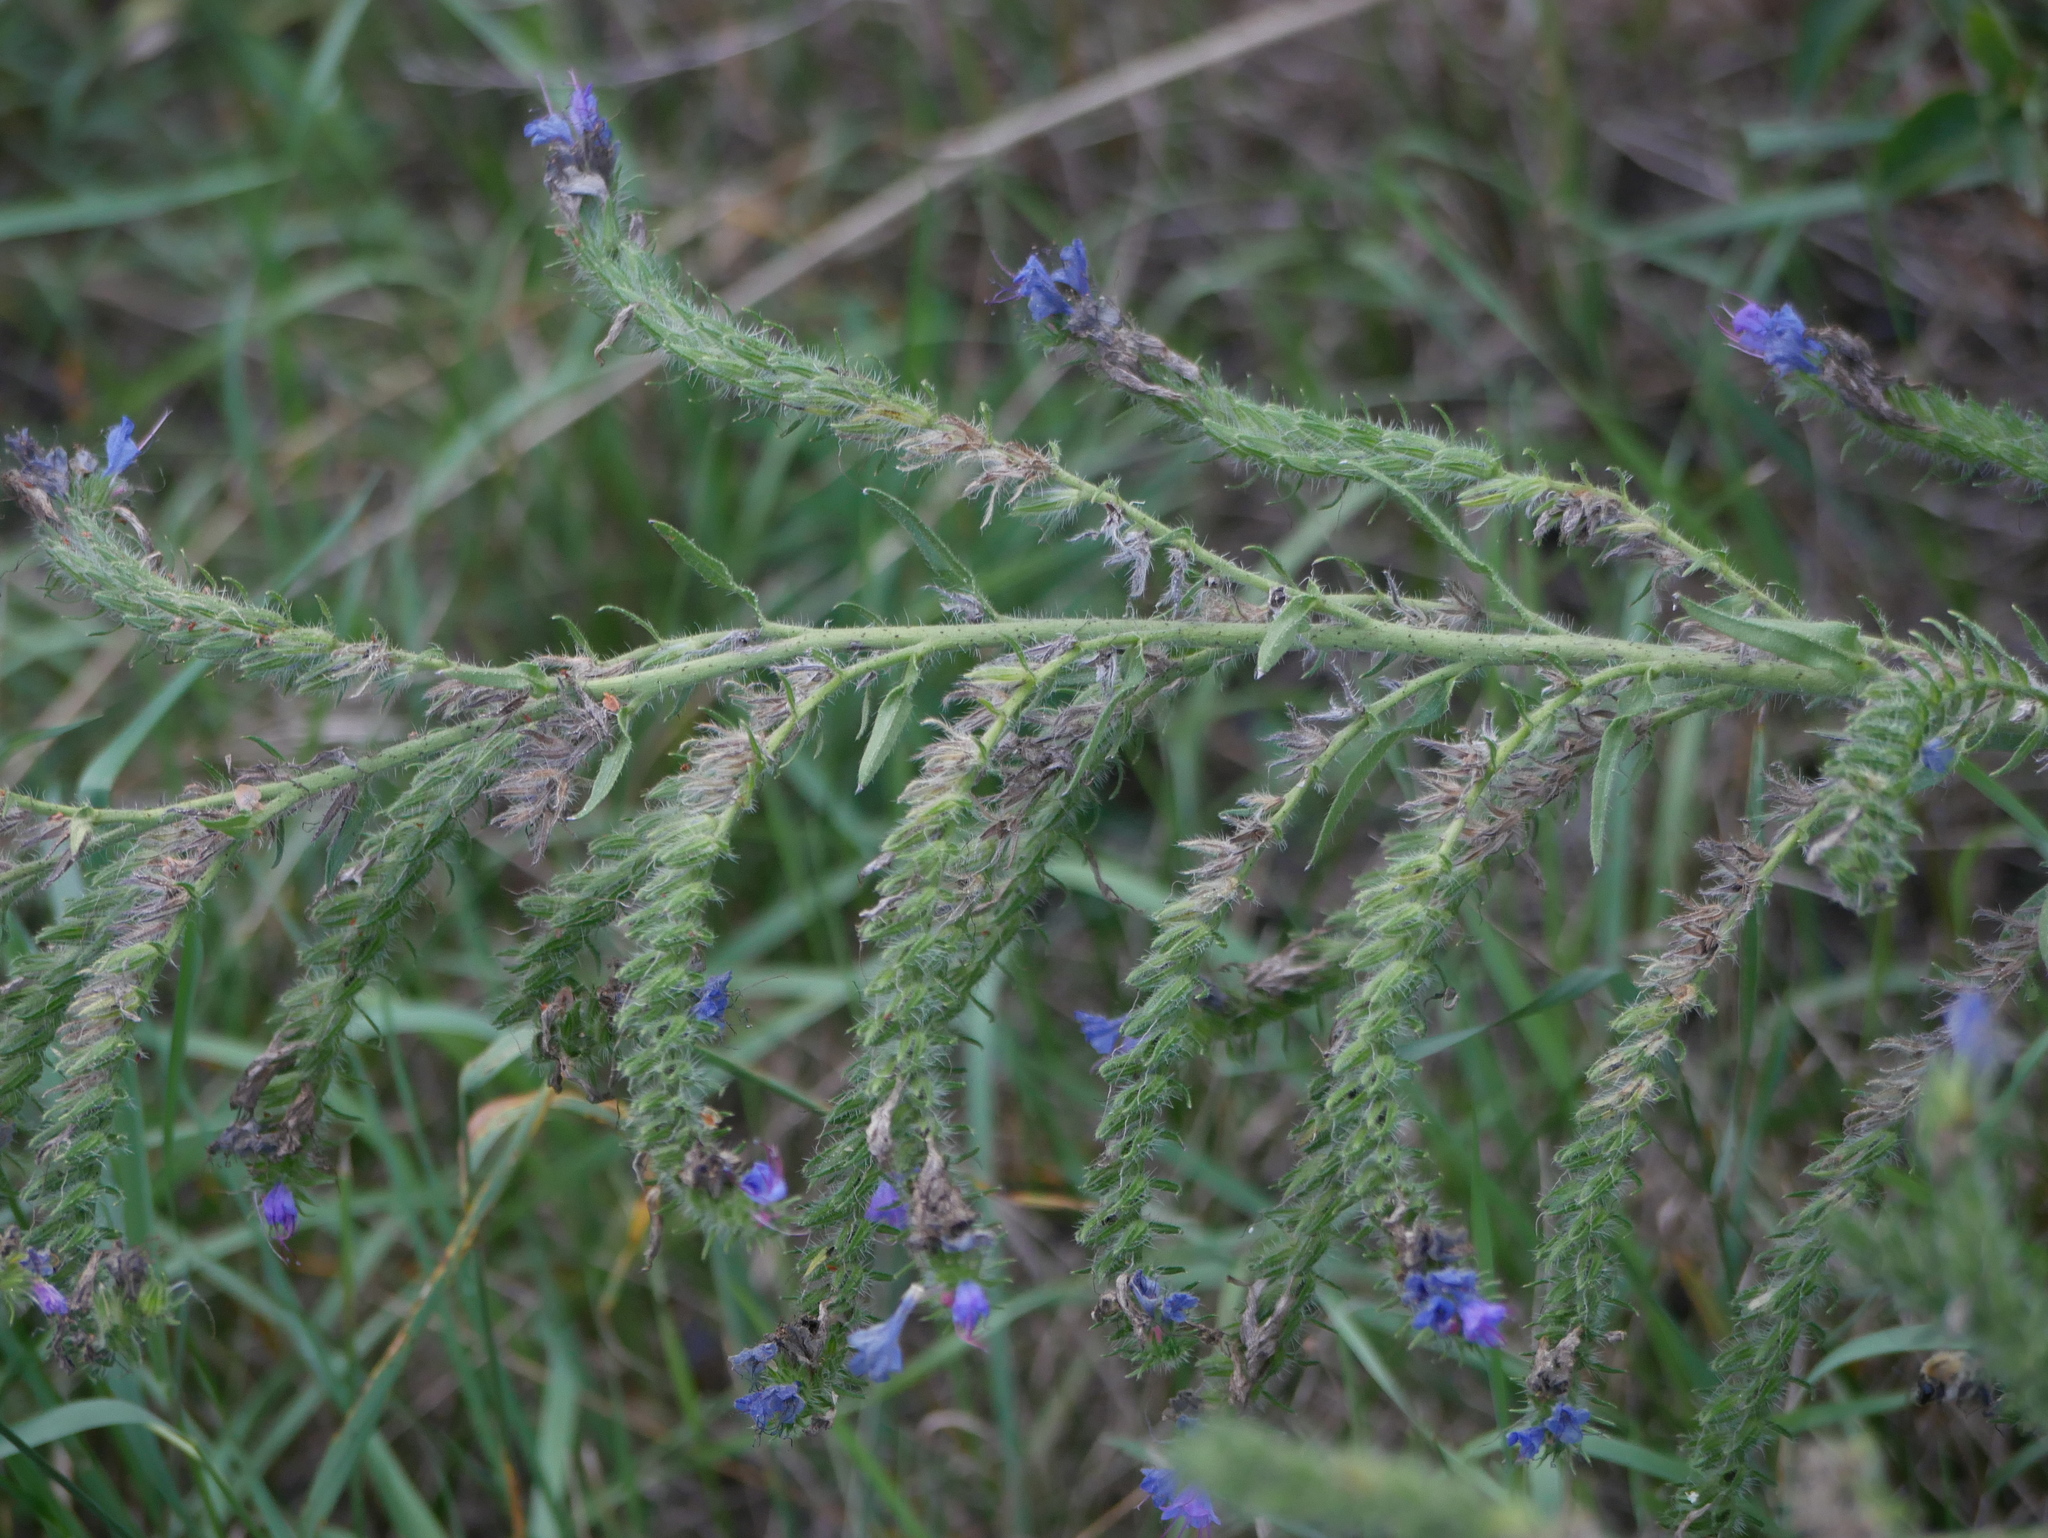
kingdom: Plantae
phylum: Tracheophyta
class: Magnoliopsida
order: Boraginales
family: Boraginaceae
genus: Echium
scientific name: Echium vulgare
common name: Common viper's bugloss
